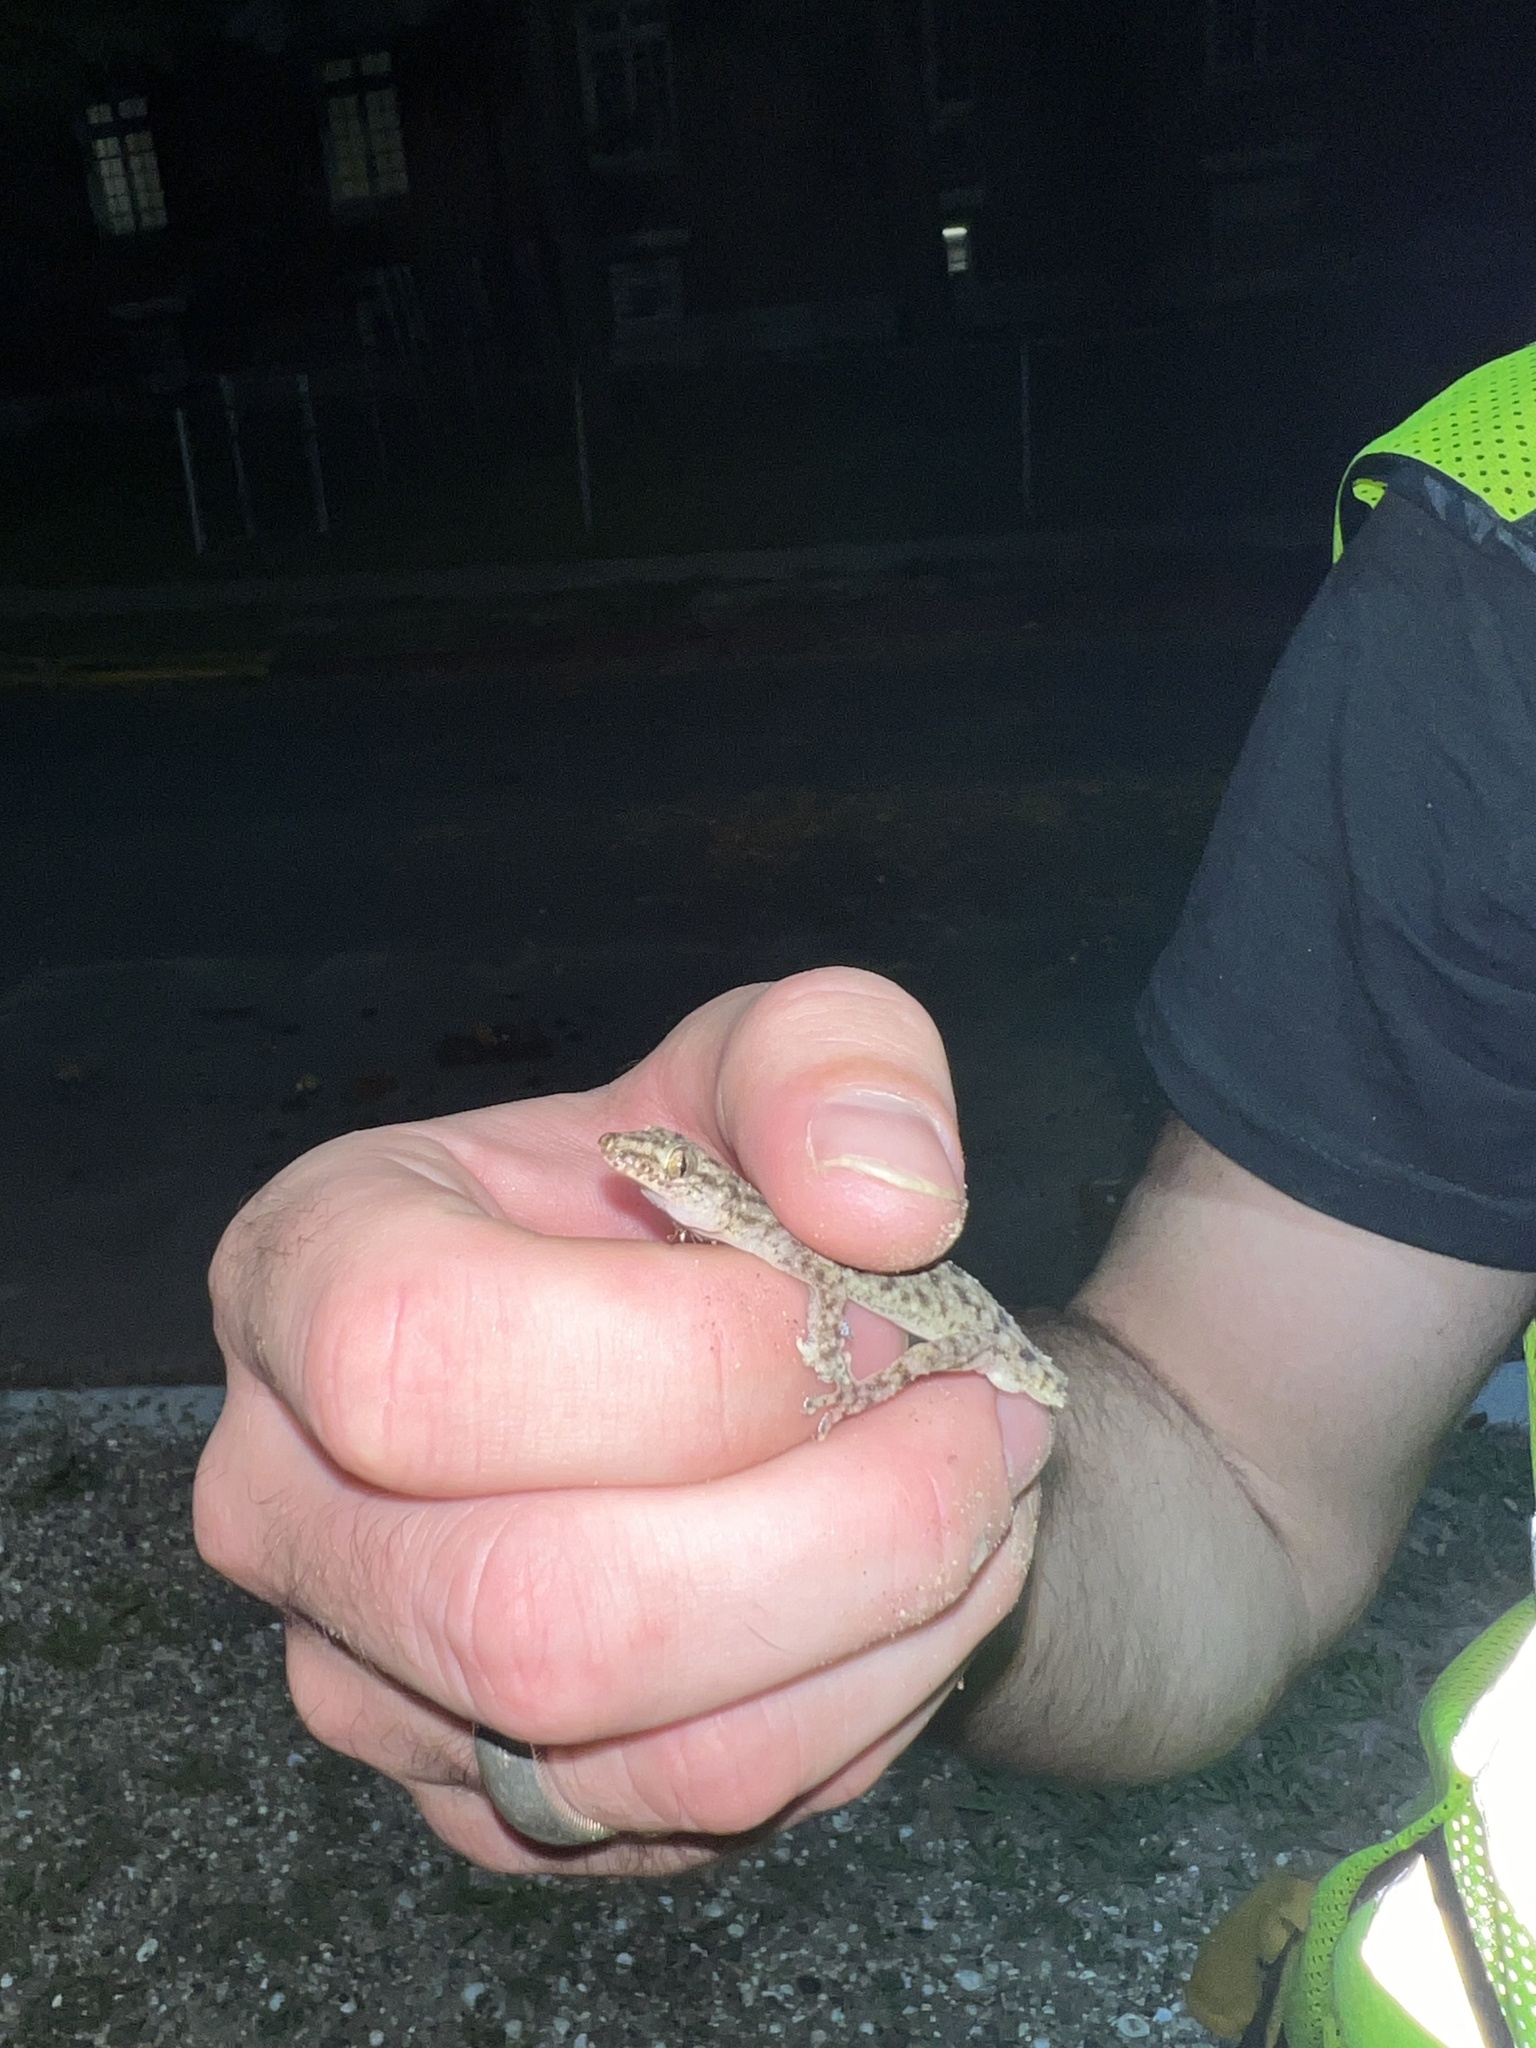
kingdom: Animalia
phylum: Chordata
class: Squamata
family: Gekkonidae
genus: Hemidactylus
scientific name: Hemidactylus parvimaculatus
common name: Spotted house gecko
